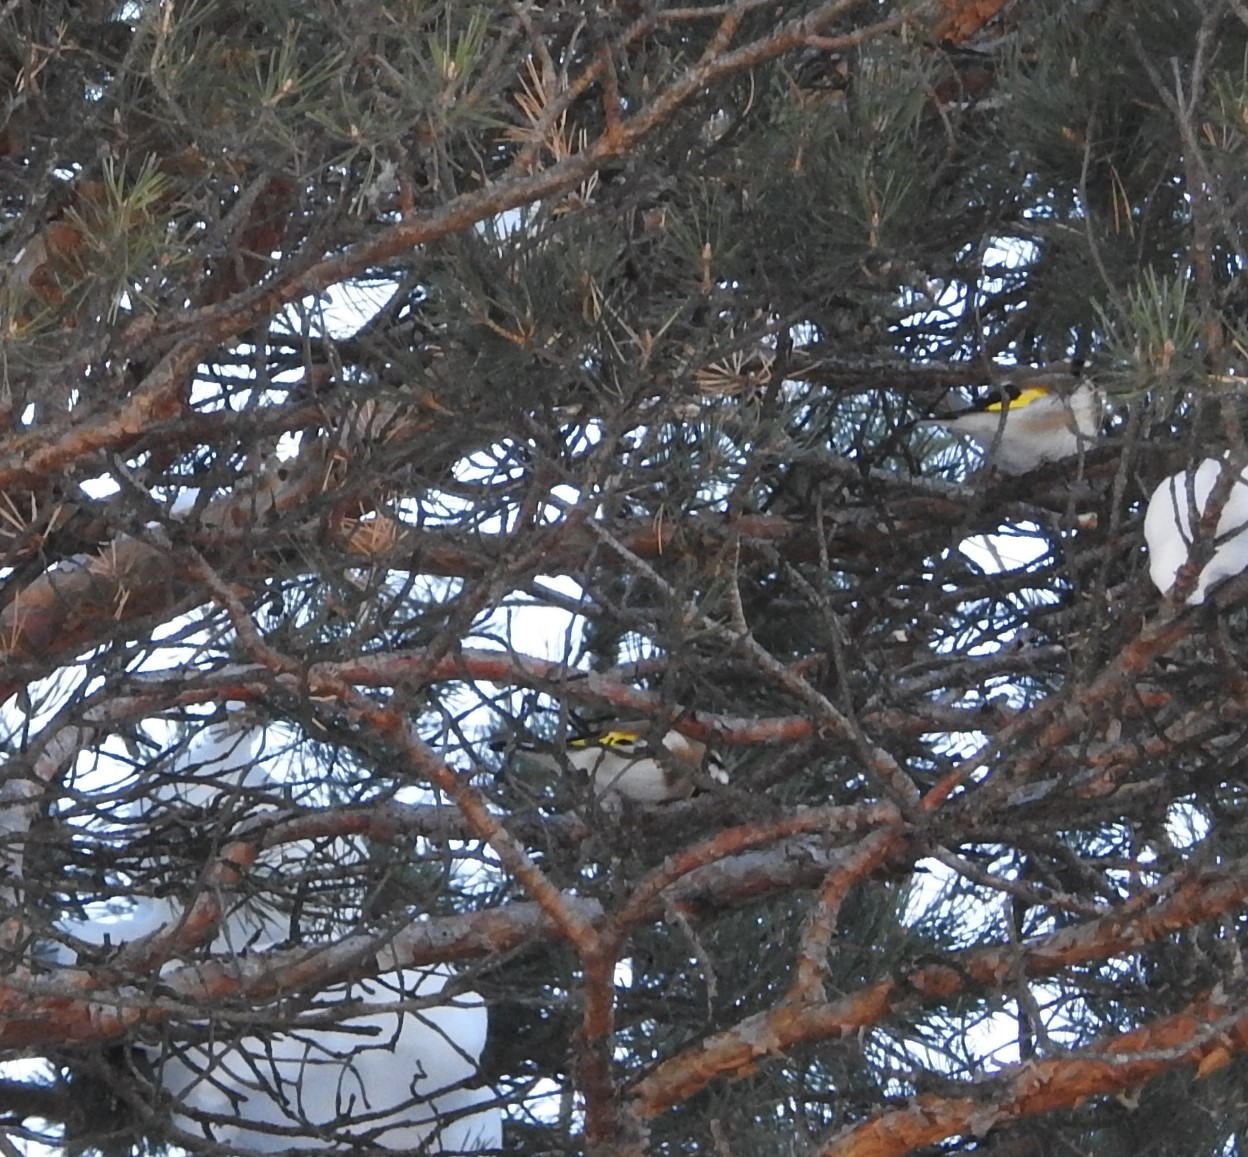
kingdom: Animalia
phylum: Chordata
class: Aves
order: Passeriformes
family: Fringillidae
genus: Carduelis
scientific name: Carduelis carduelis
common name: European goldfinch
